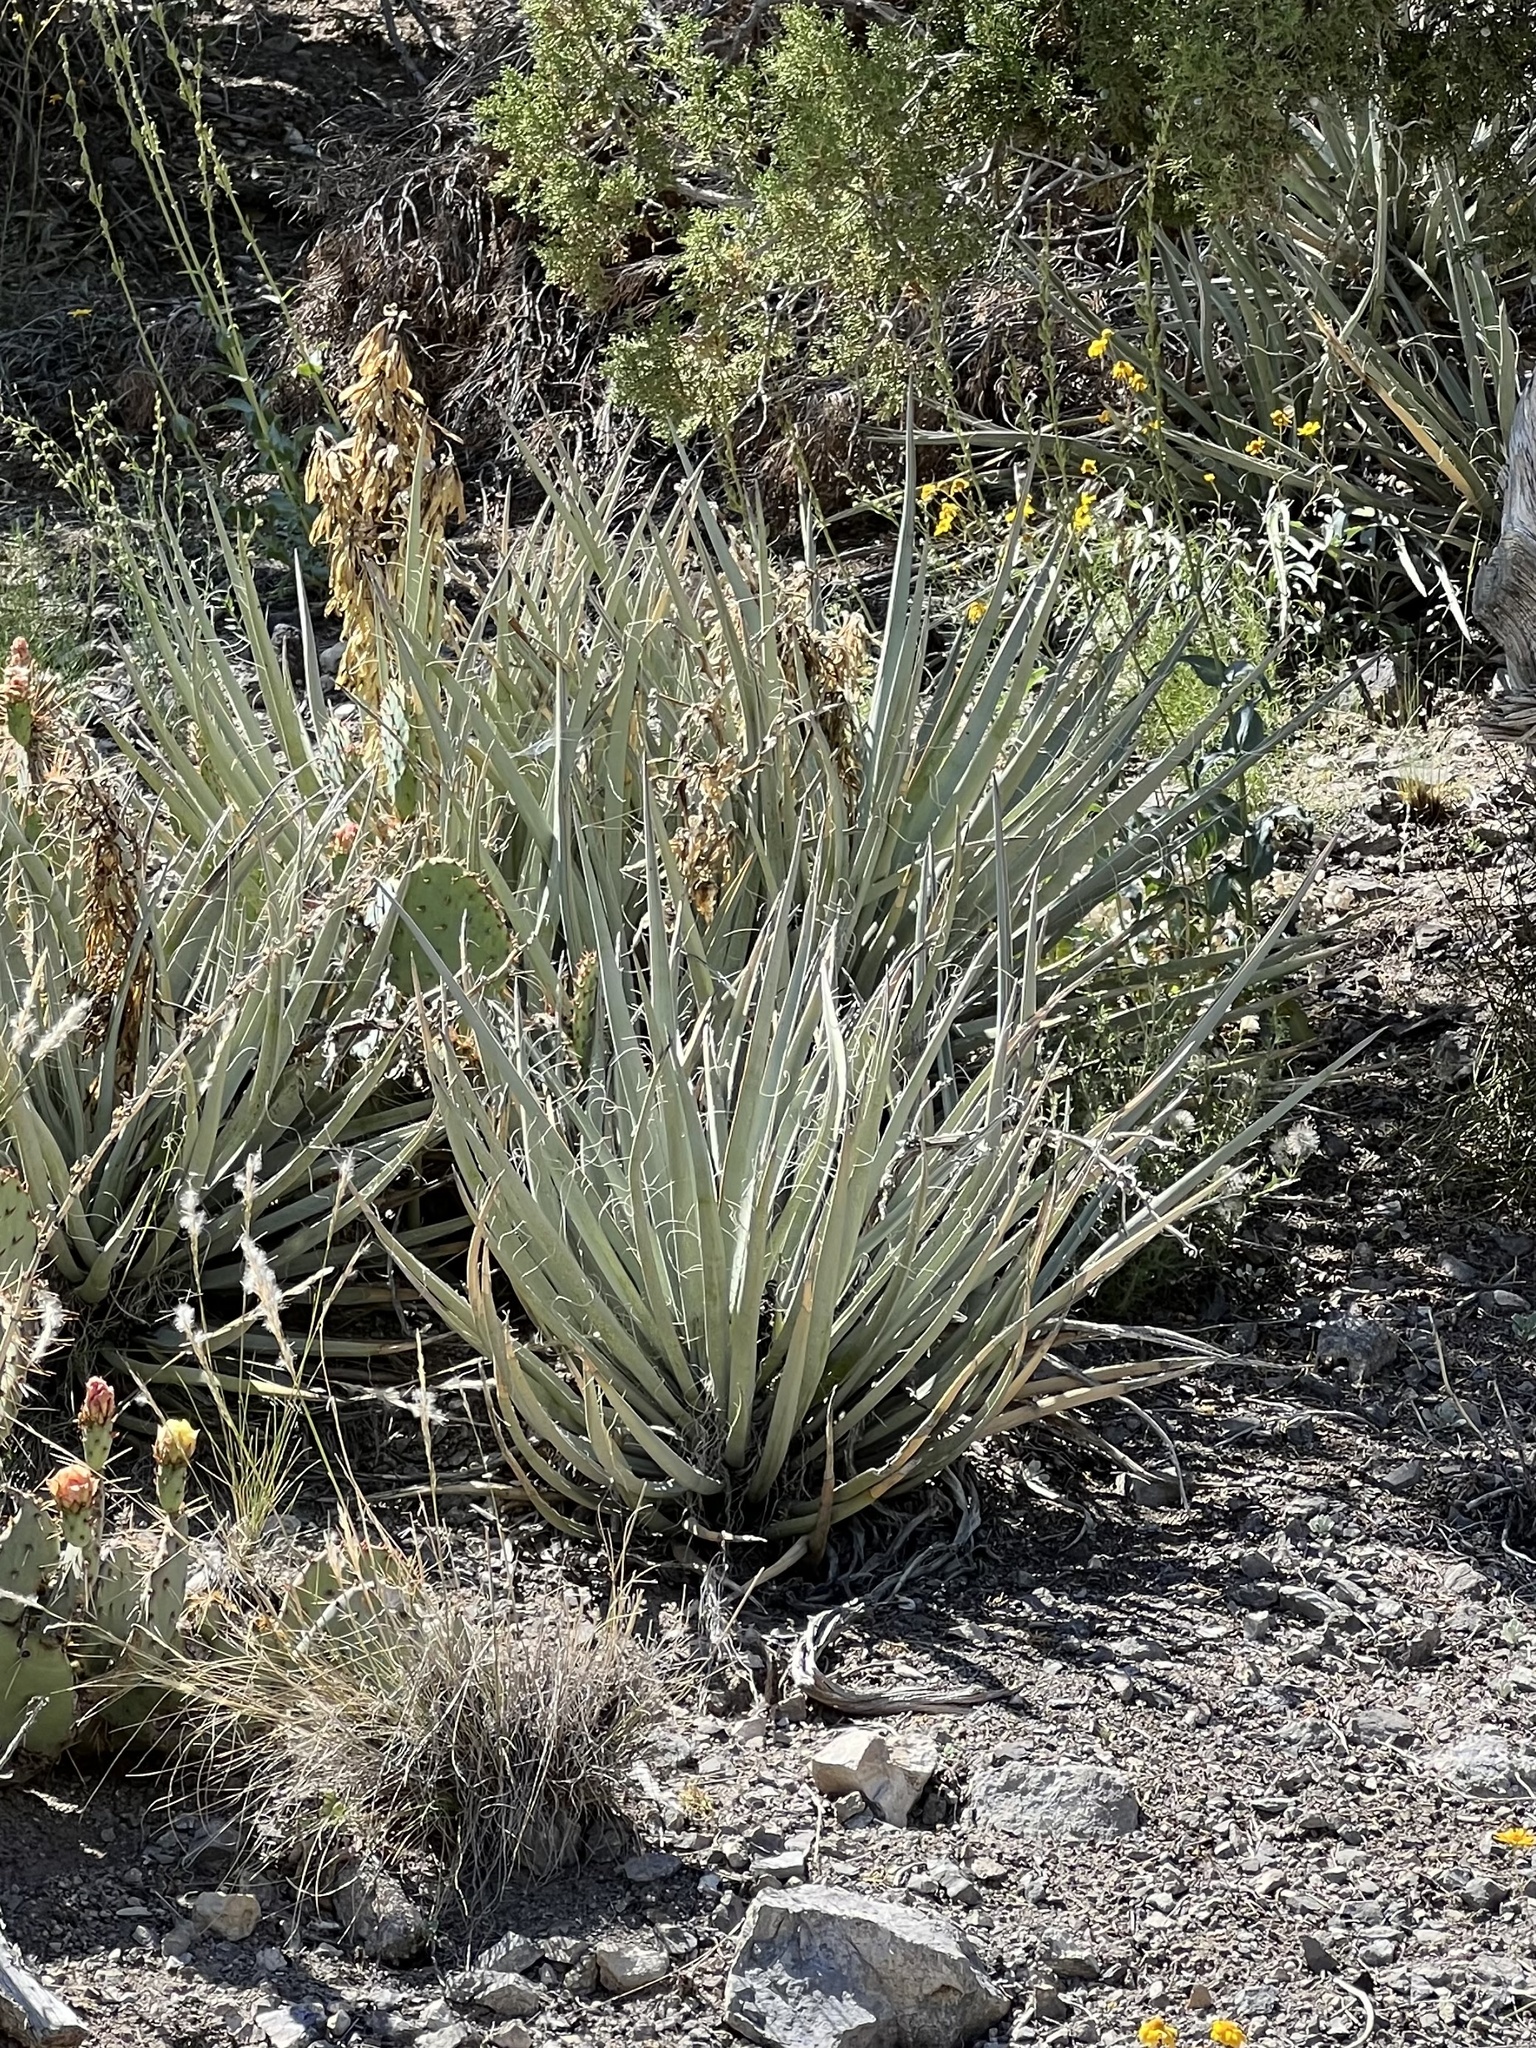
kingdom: Plantae
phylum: Tracheophyta
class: Liliopsida
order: Asparagales
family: Asparagaceae
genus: Yucca
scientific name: Yucca baccata
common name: Banana yucca
